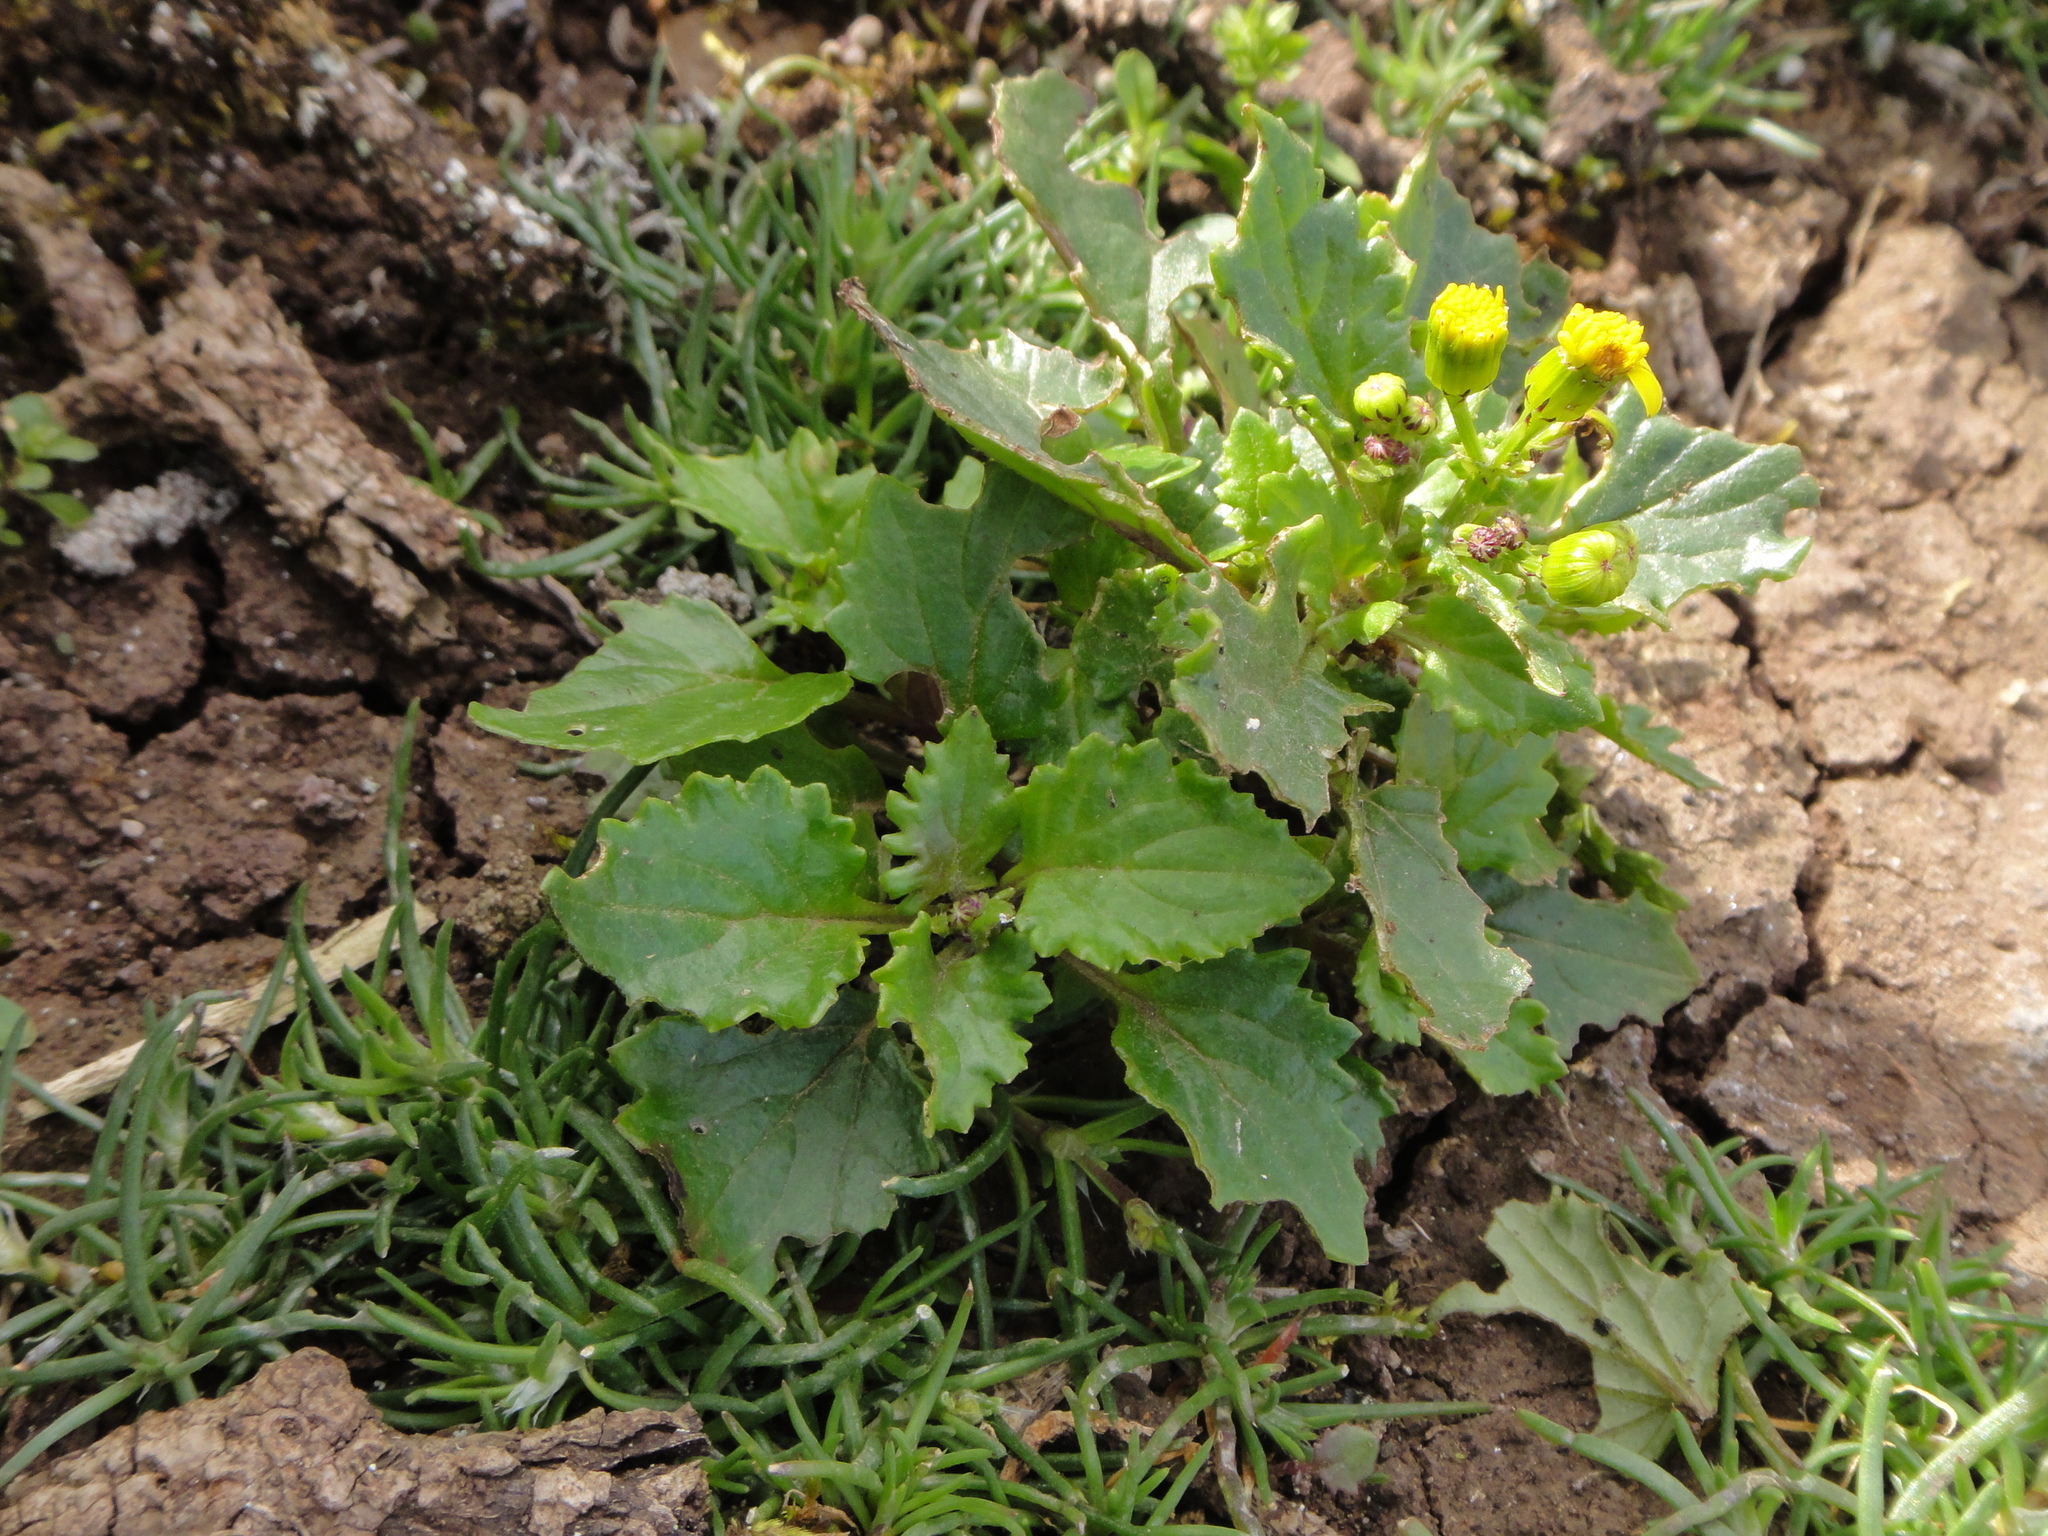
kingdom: Plantae
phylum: Tracheophyta
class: Magnoliopsida
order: Asterales
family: Asteraceae
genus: Senecio
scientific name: Senecio bollei
